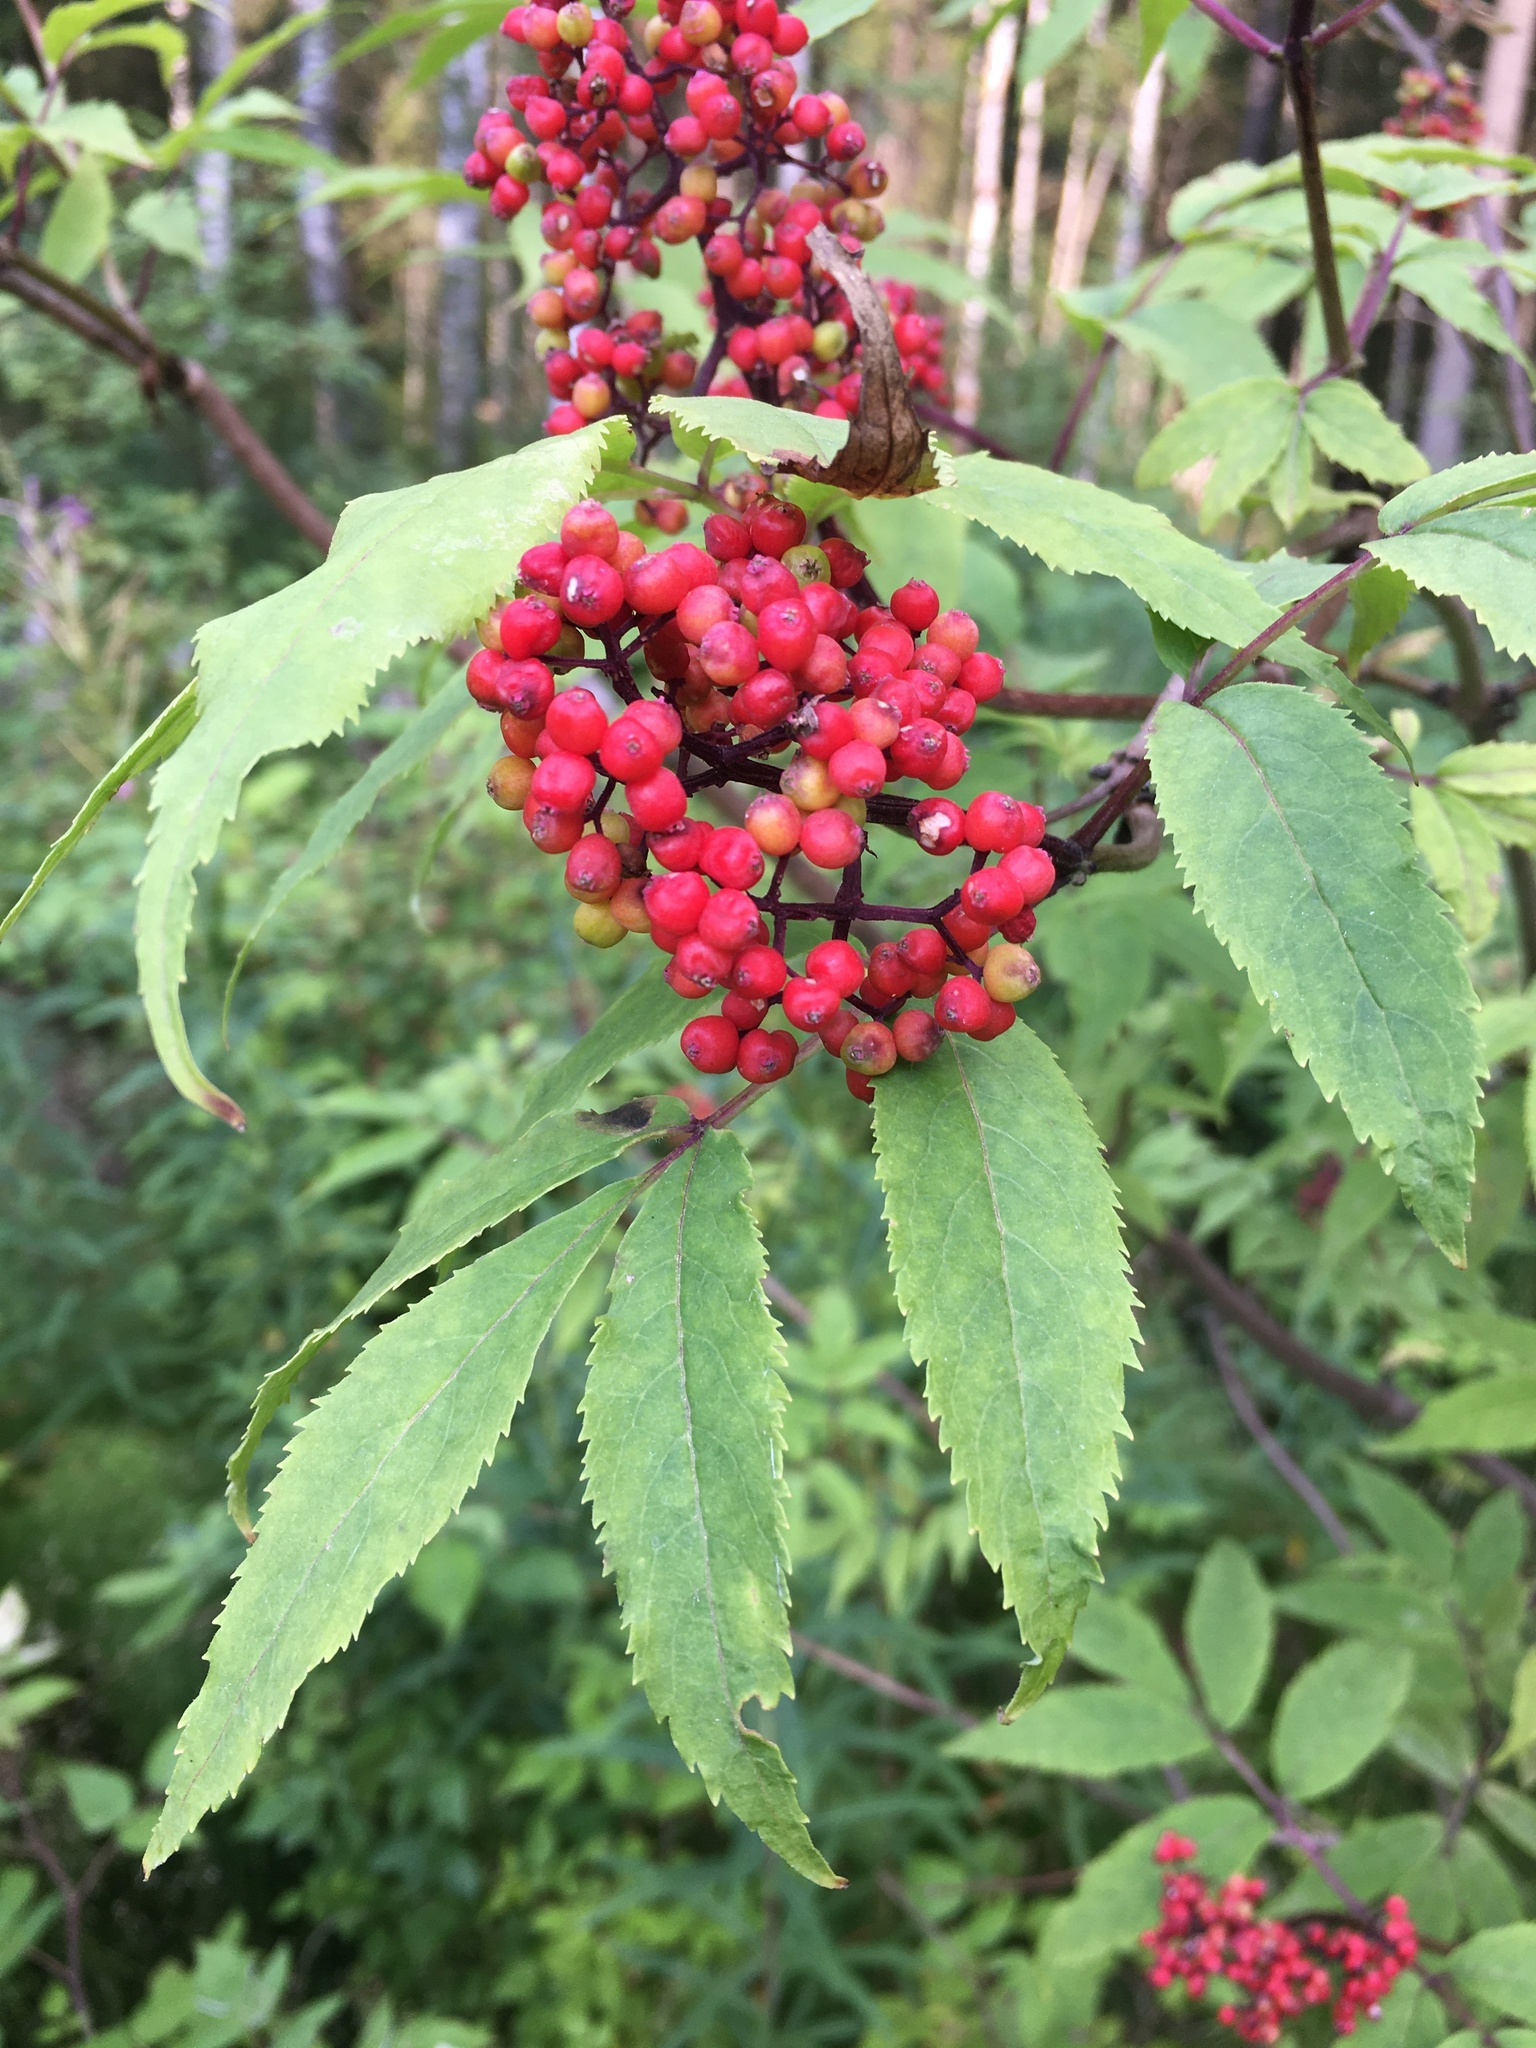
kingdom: Plantae
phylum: Tracheophyta
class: Magnoliopsida
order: Dipsacales
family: Viburnaceae
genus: Sambucus
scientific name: Sambucus racemosa
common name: Red-berried elder
